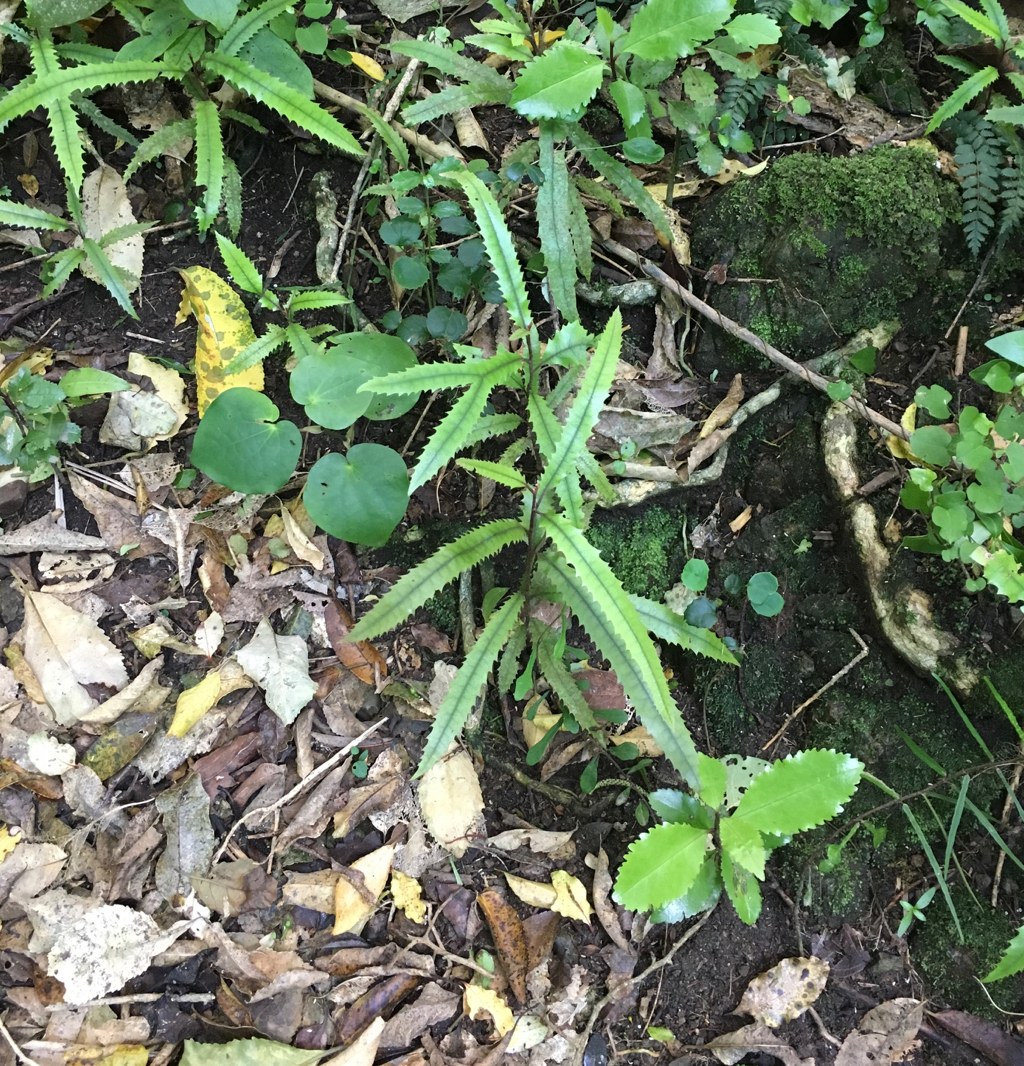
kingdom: Plantae
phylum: Tracheophyta
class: Magnoliopsida
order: Proteales
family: Proteaceae
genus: Knightia
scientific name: Knightia excelsa
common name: New zealand-honeysuckle
